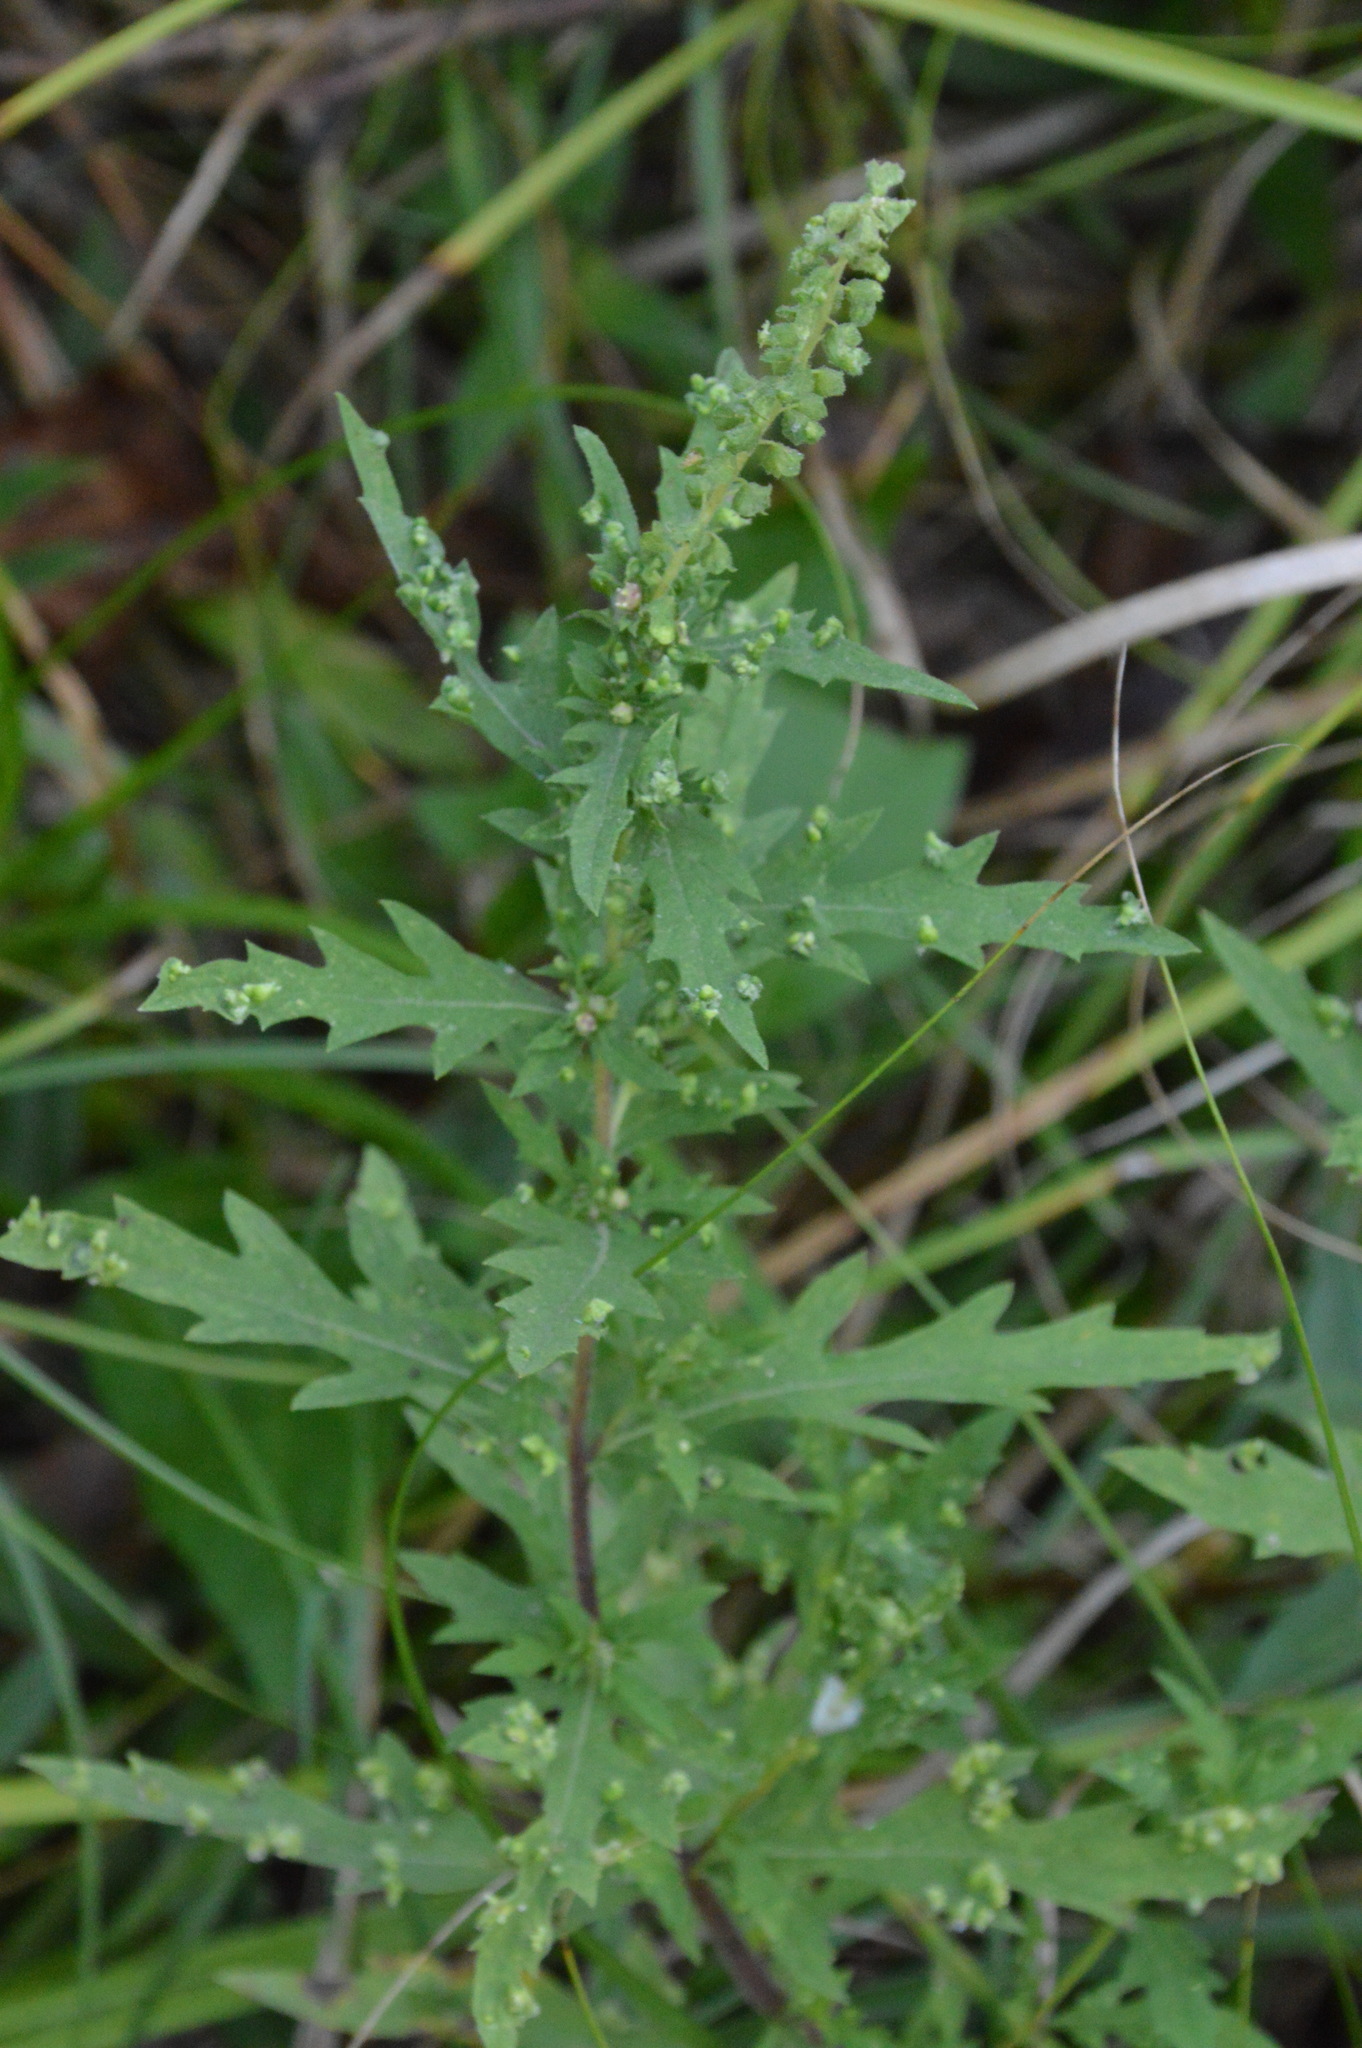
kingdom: Animalia
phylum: Arthropoda
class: Arachnida
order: Trombidiformes
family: Eriophyidae
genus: Aceria
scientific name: Aceria
